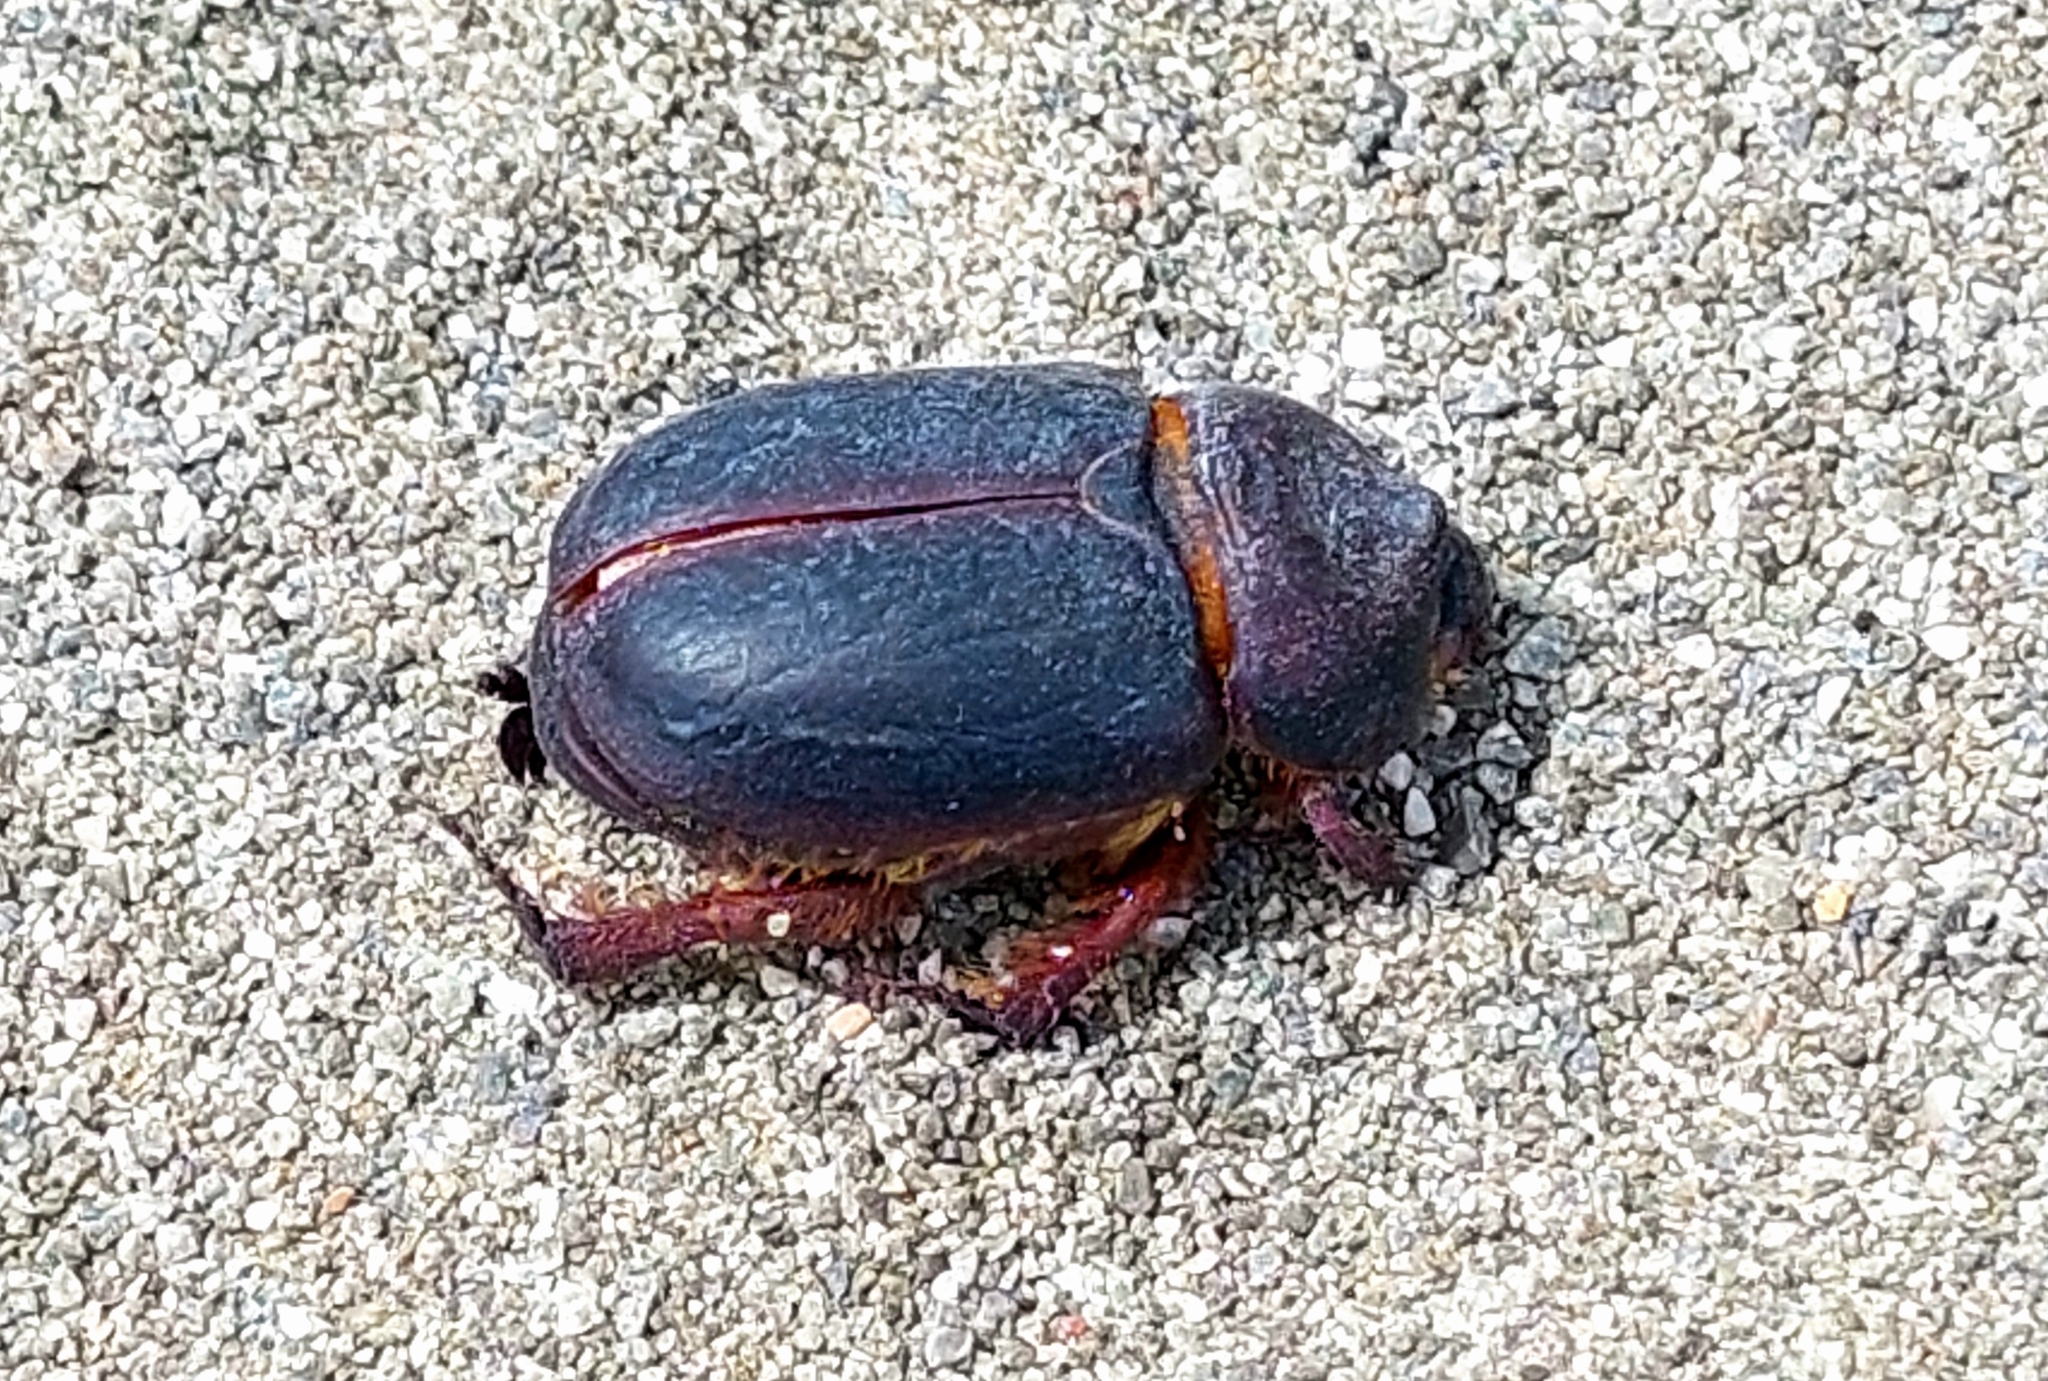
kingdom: Animalia
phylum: Arthropoda
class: Insecta
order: Coleoptera
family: Scarabaeidae
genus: Pericoptus
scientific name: Pericoptus truncatus
